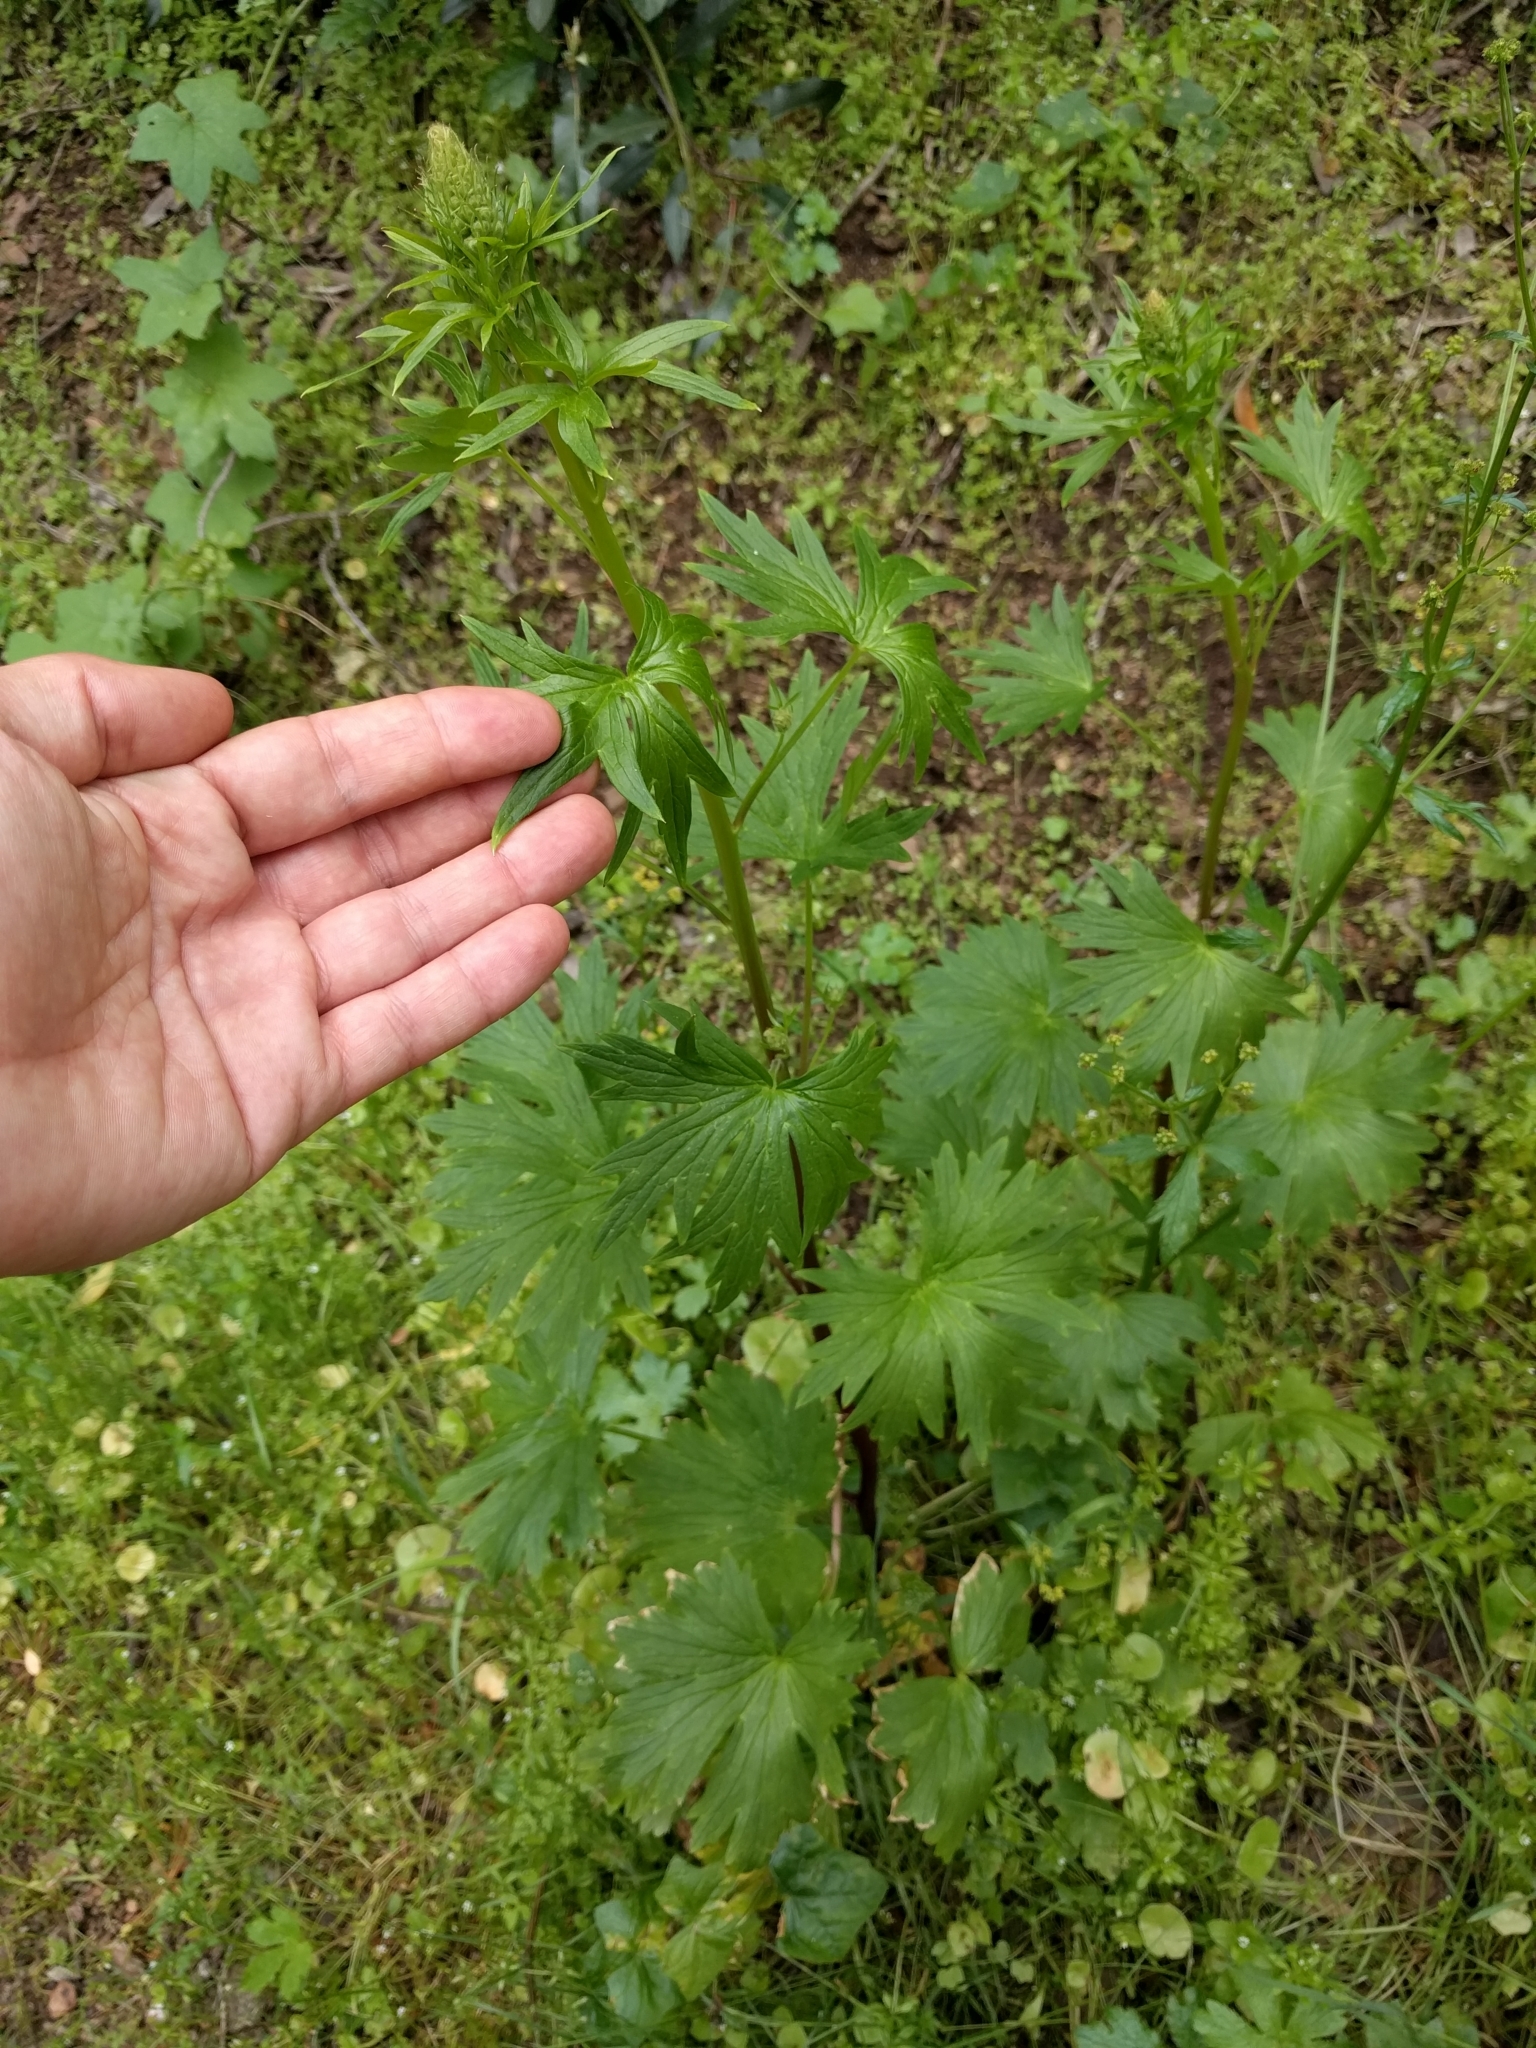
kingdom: Plantae
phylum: Tracheophyta
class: Magnoliopsida
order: Ranunculales
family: Ranunculaceae
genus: Delphinium
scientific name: Delphinium californicum
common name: California larkspur
